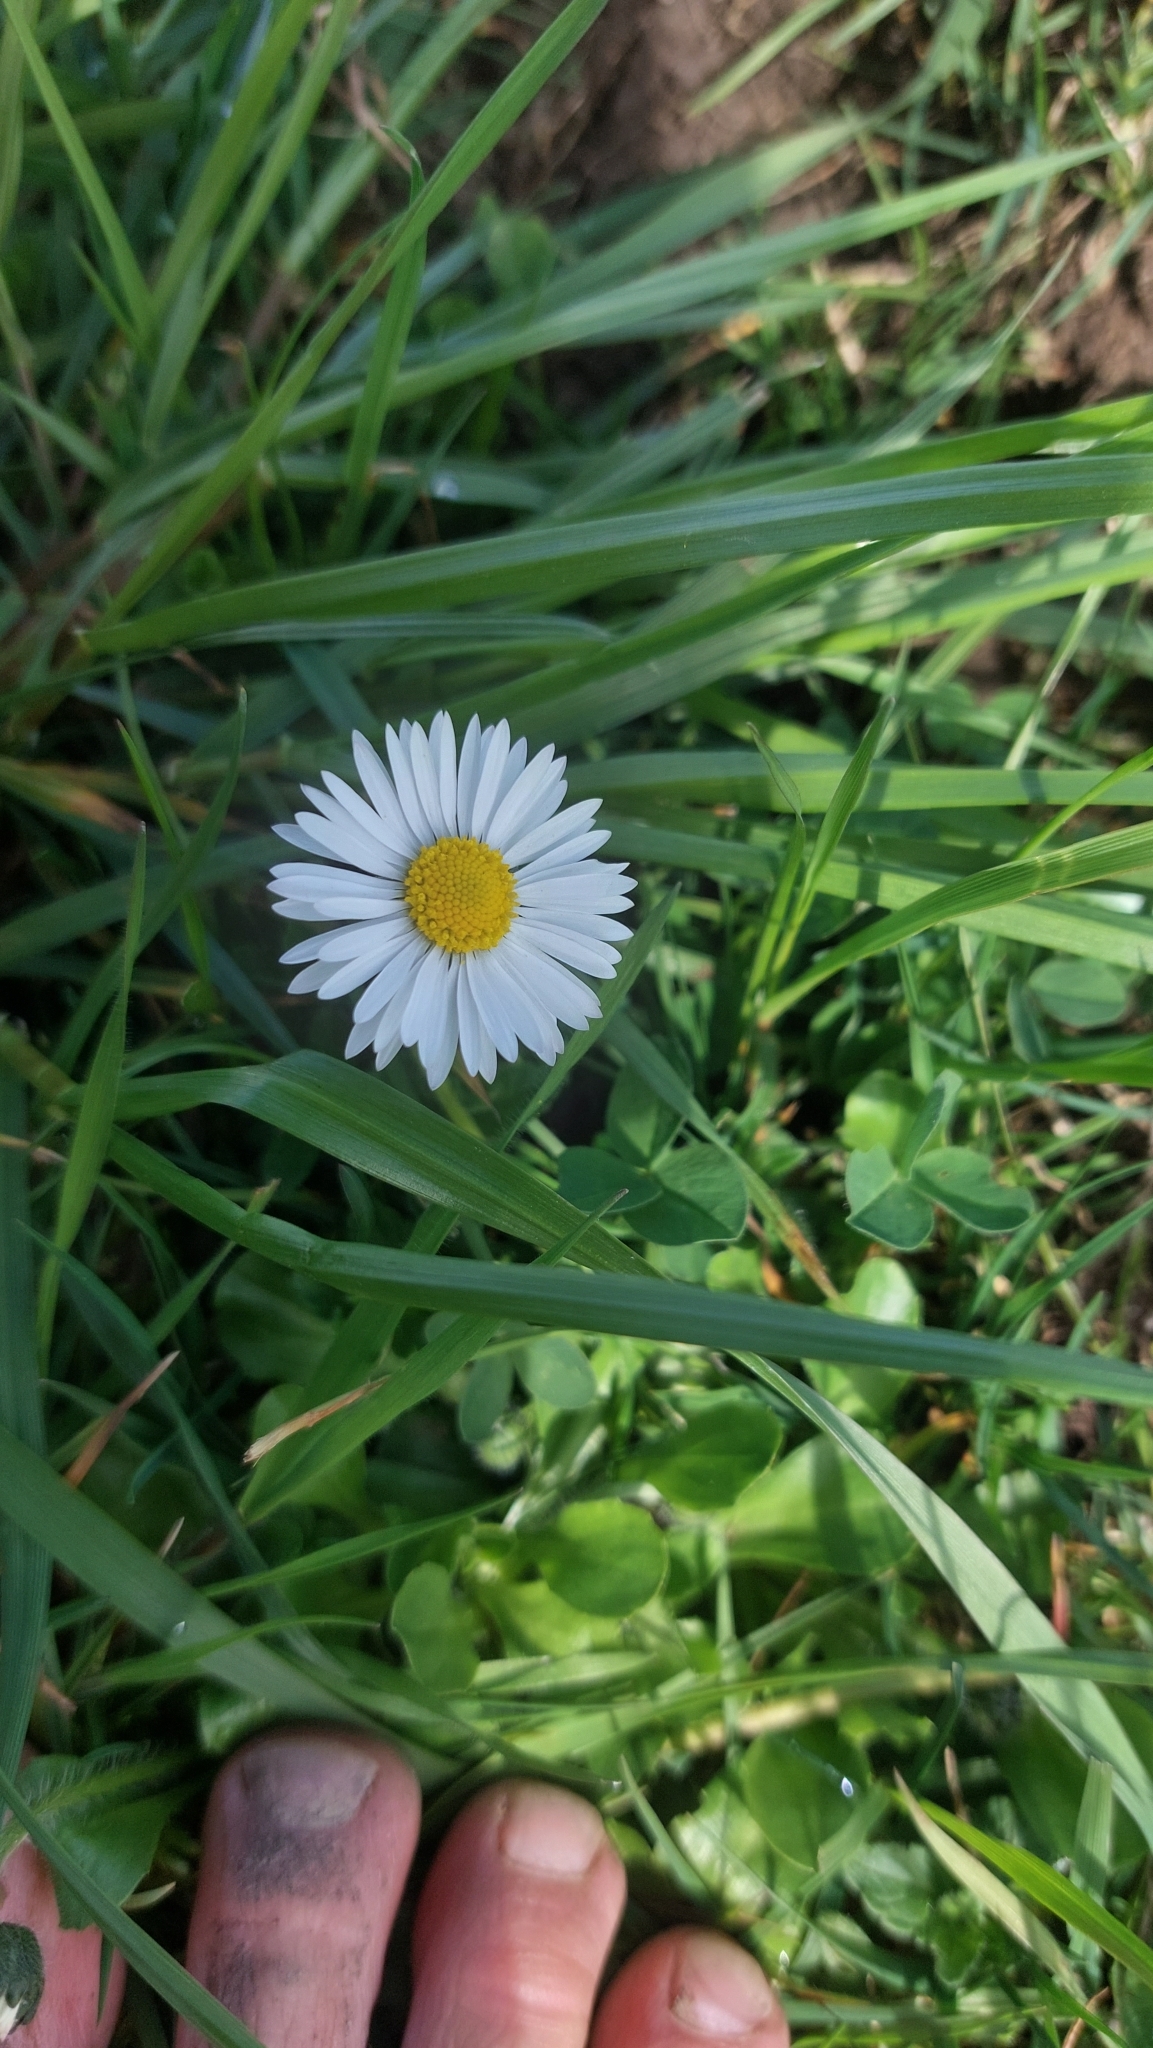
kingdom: Plantae
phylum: Tracheophyta
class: Magnoliopsida
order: Asterales
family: Asteraceae
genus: Bellis
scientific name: Bellis perennis
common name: Lawndaisy
